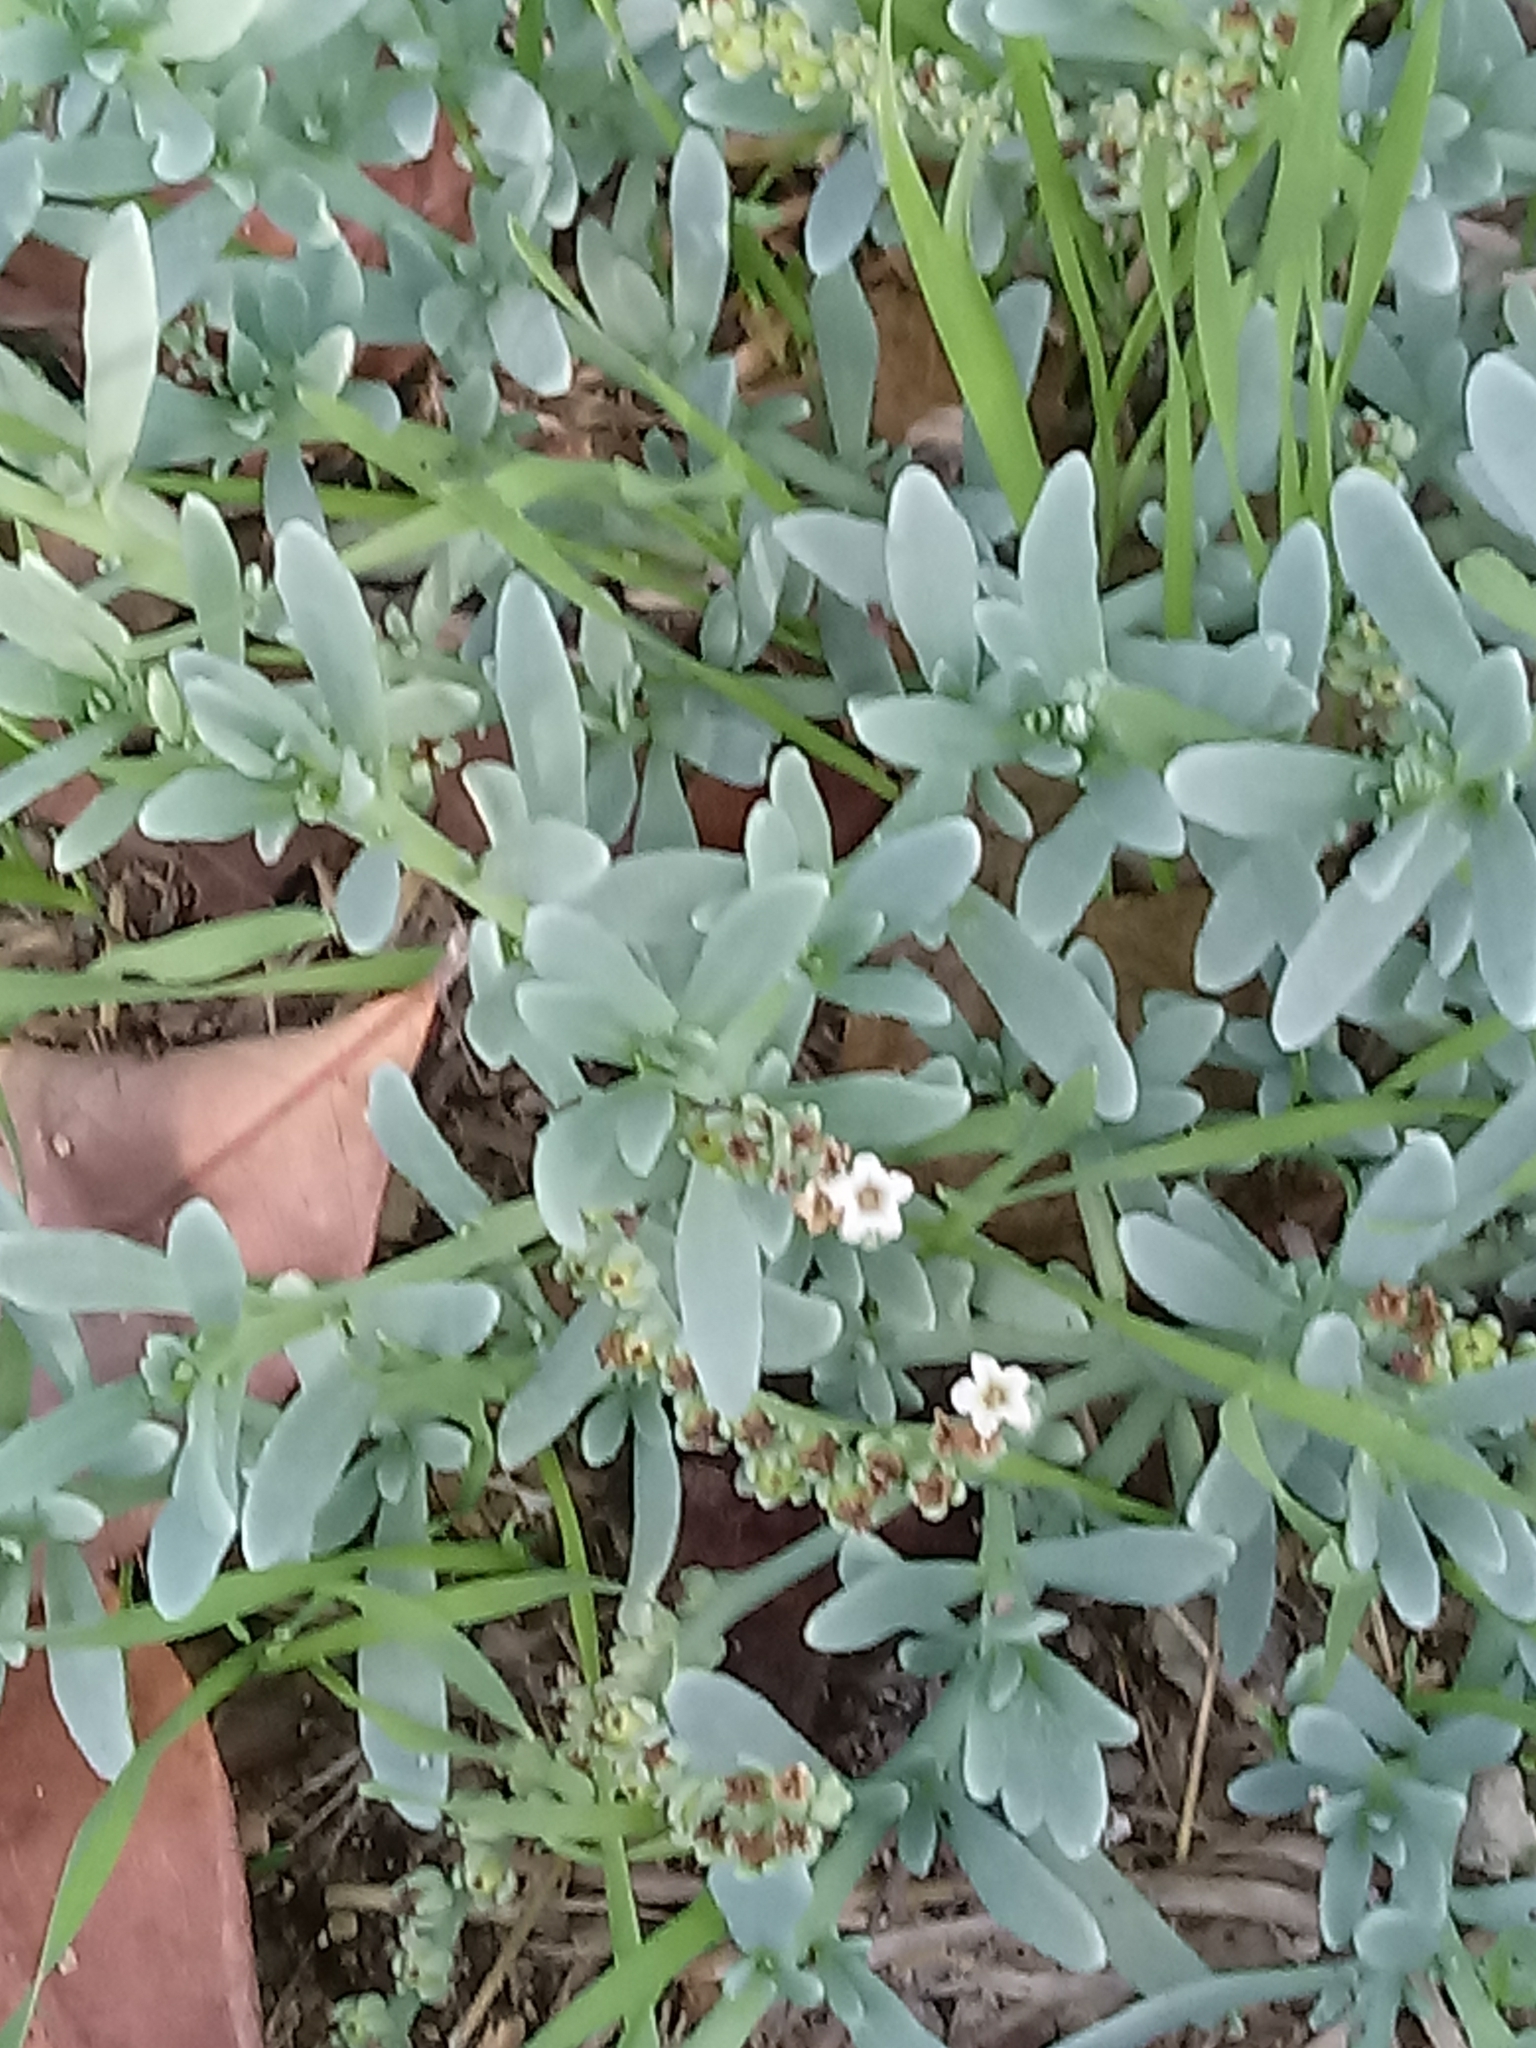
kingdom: Plantae
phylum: Tracheophyta
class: Magnoliopsida
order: Boraginales
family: Heliotropiaceae
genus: Heliotropium
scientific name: Heliotropium curassavicum
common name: Seaside heliotrope
